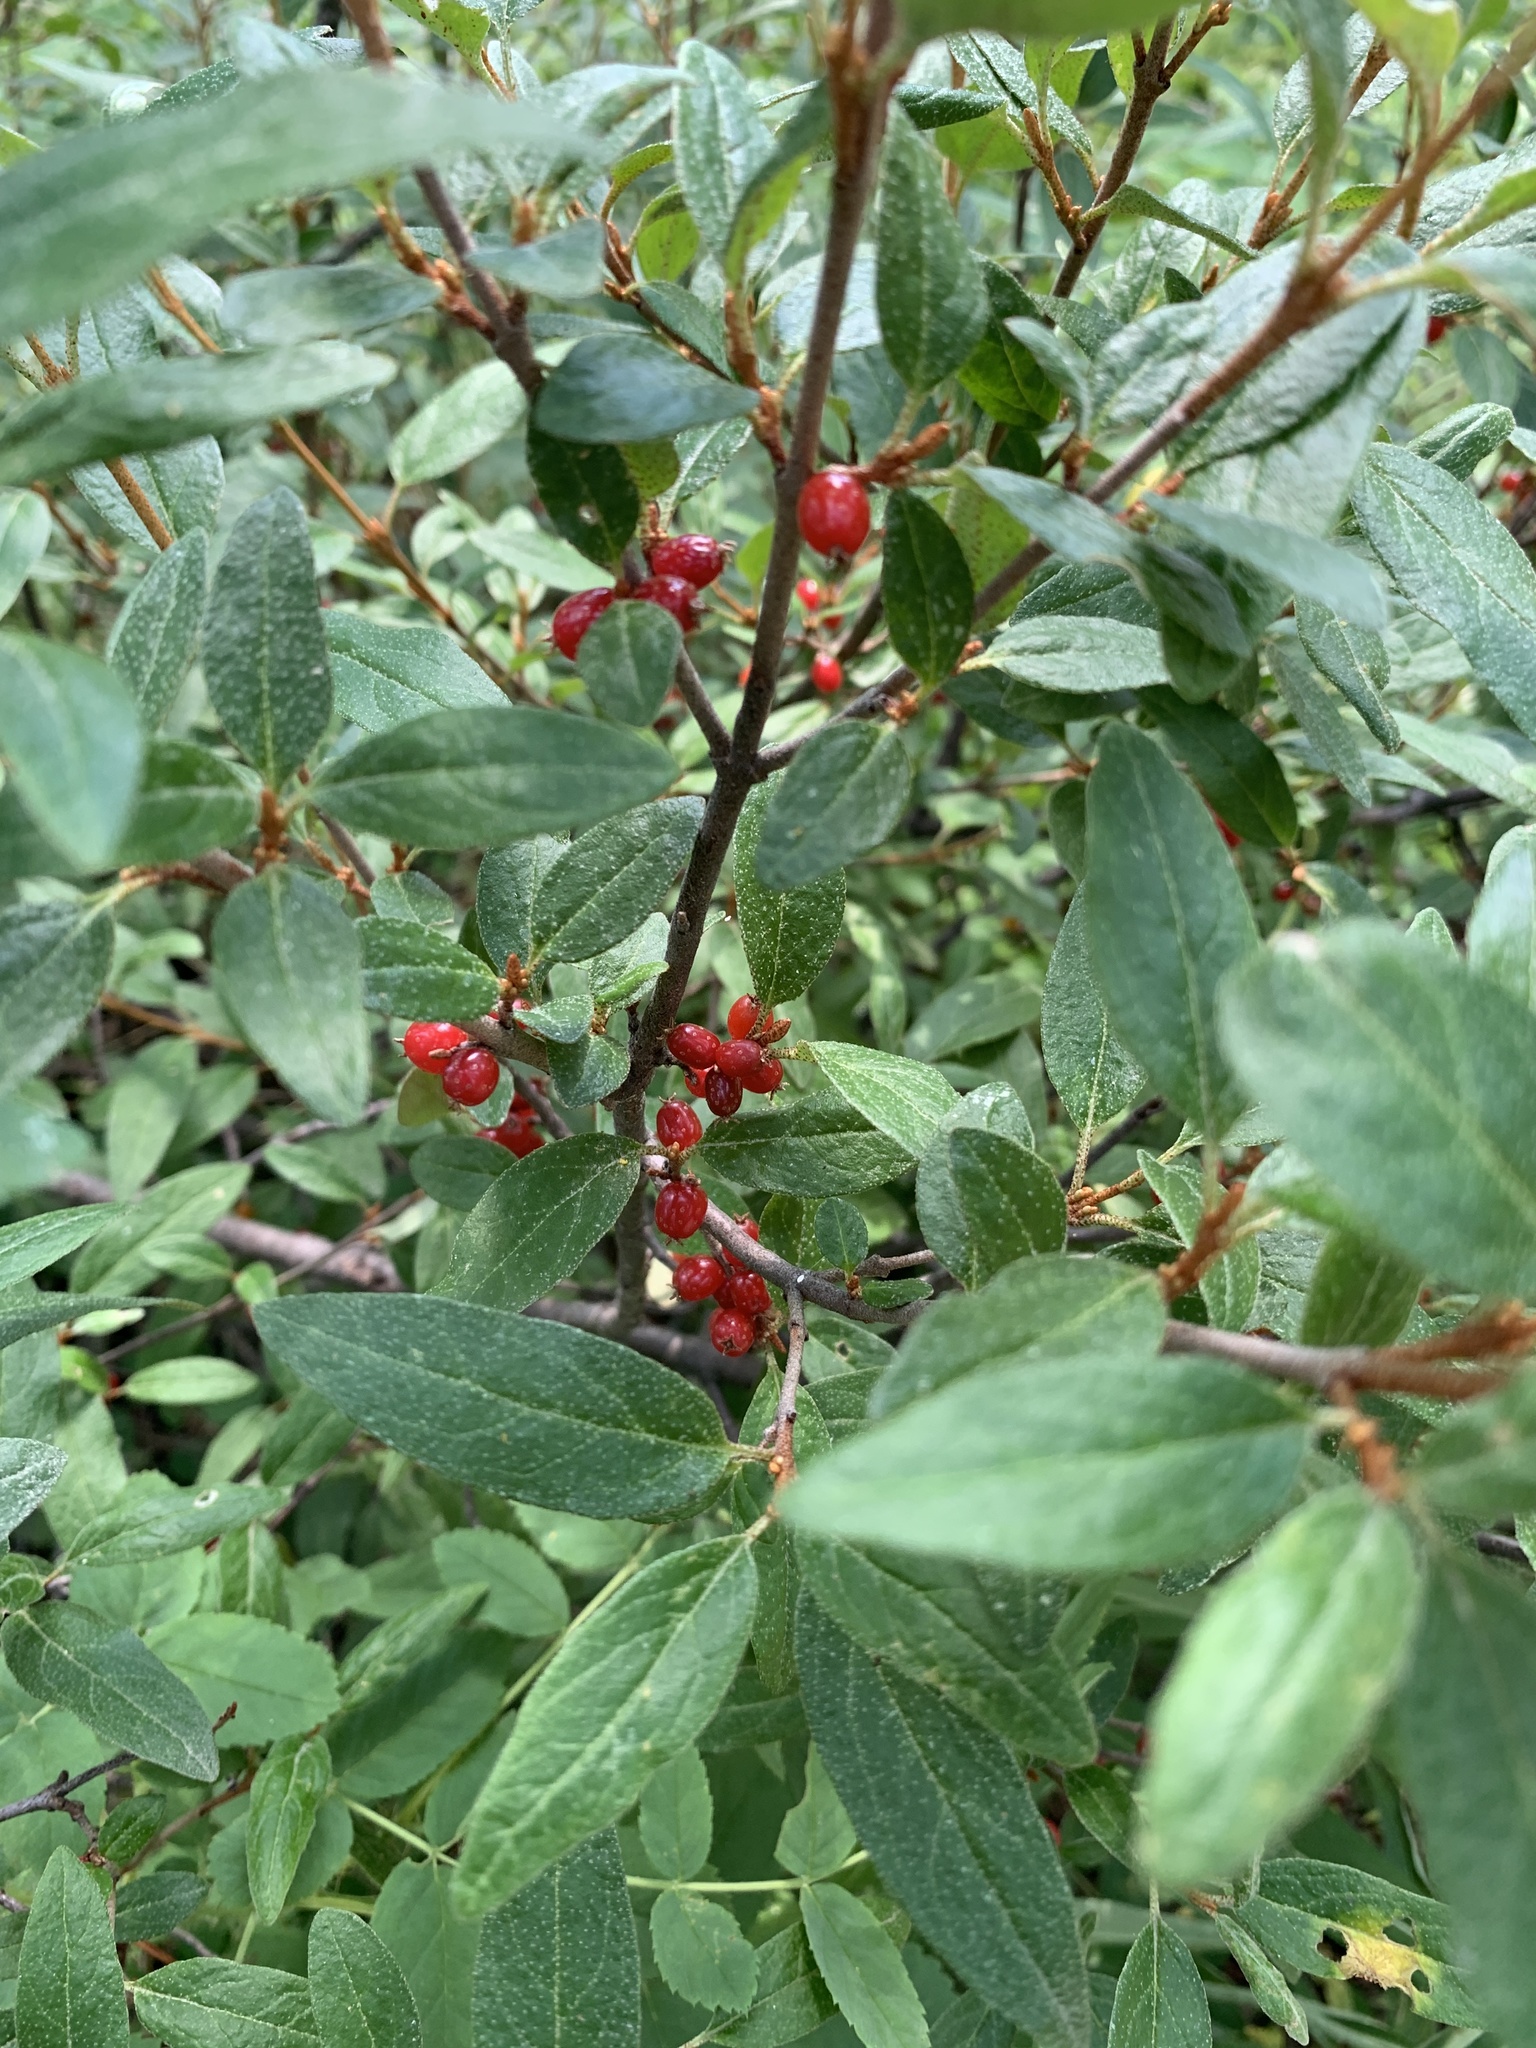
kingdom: Plantae
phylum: Tracheophyta
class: Magnoliopsida
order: Rosales
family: Elaeagnaceae
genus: Shepherdia
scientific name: Shepherdia canadensis
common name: Soapberry
